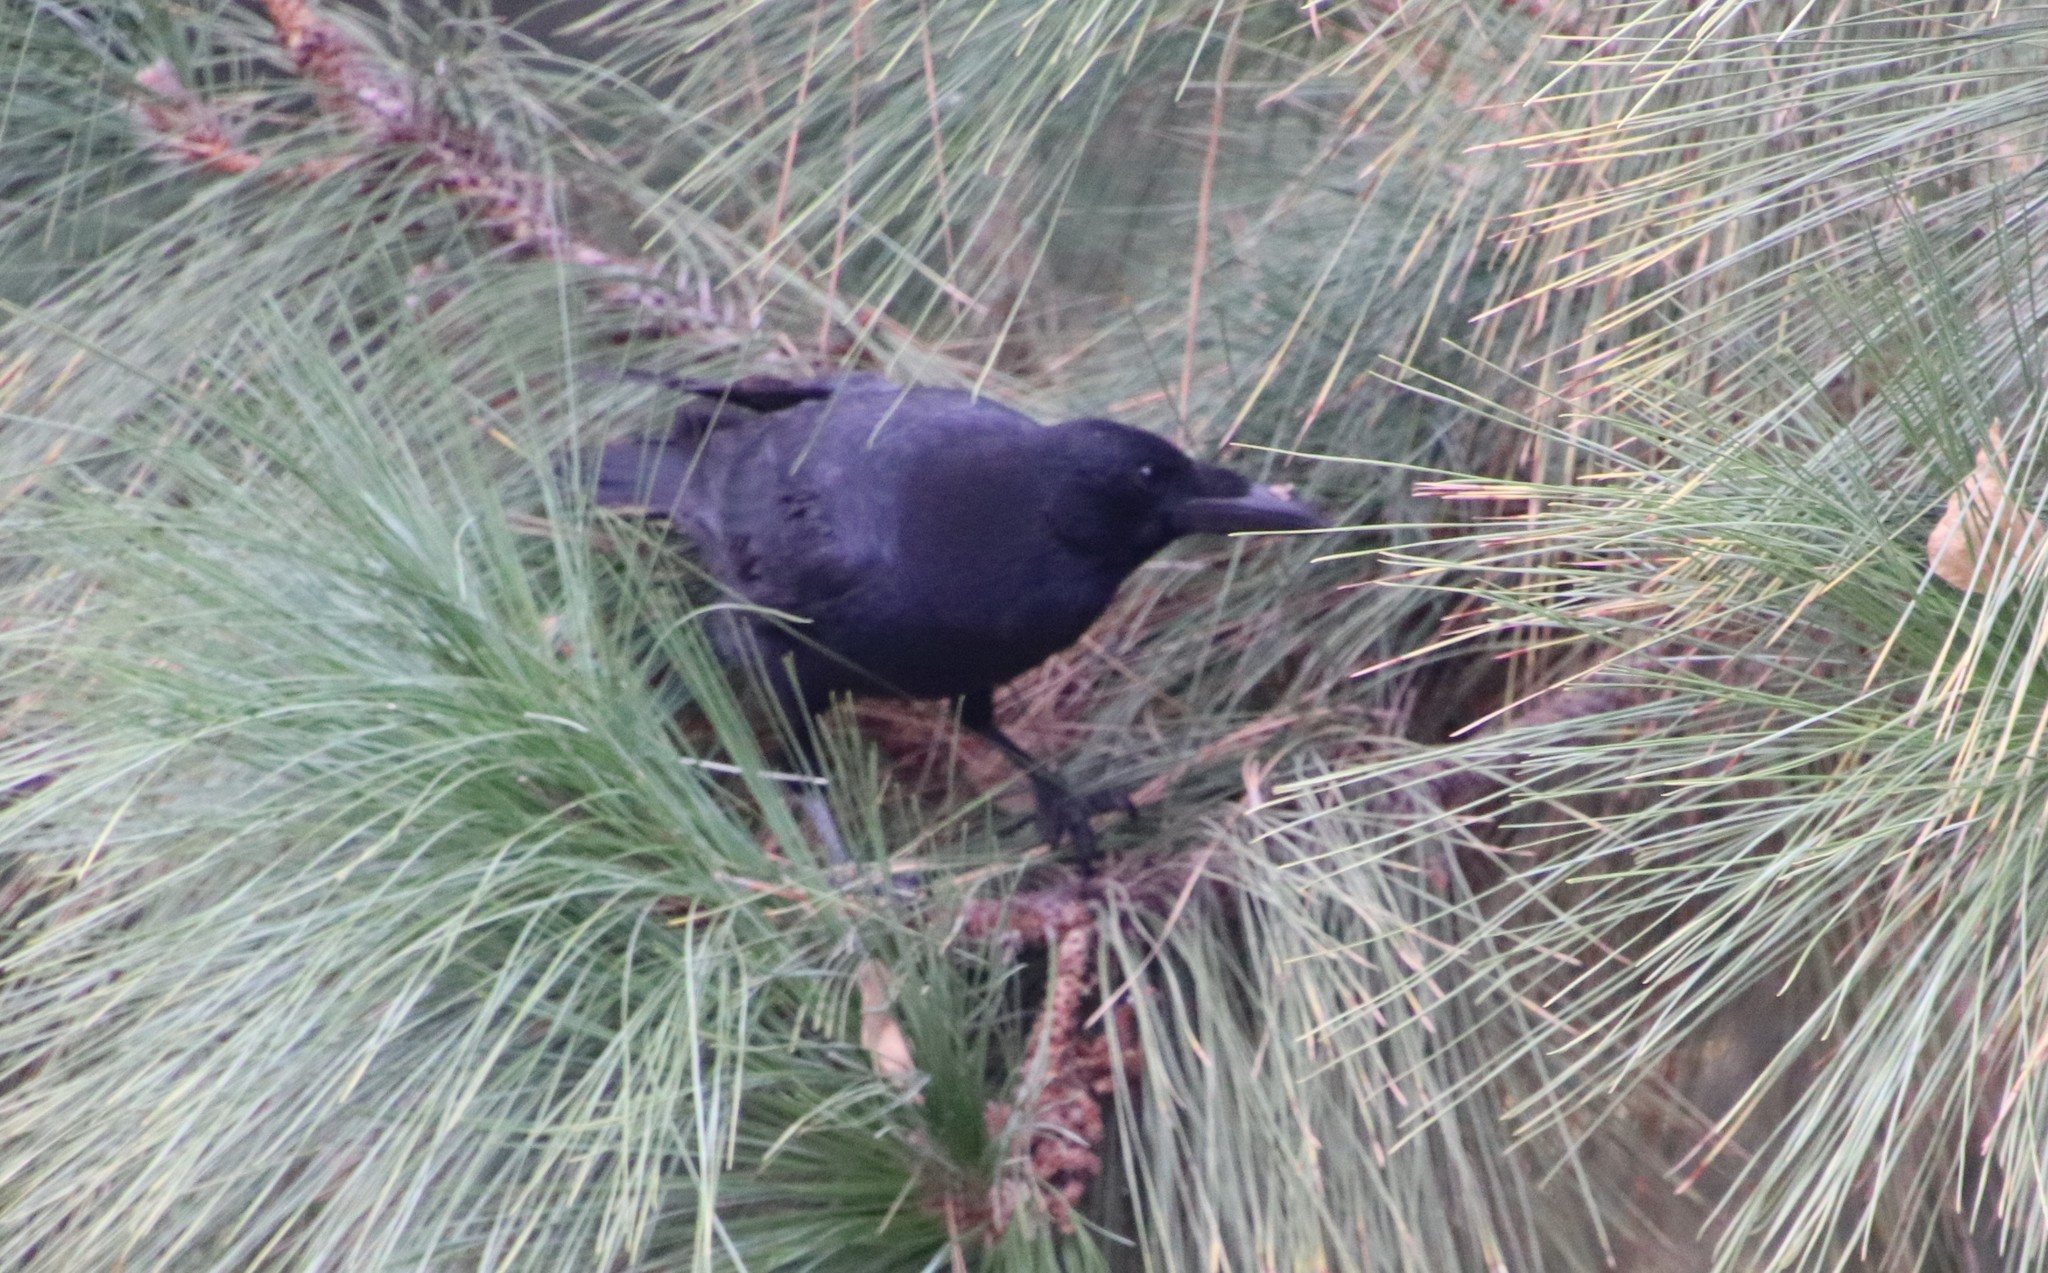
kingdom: Animalia
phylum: Chordata
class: Aves
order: Passeriformes
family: Corvidae
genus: Corvus
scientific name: Corvus brachyrhynchos
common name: American crow
